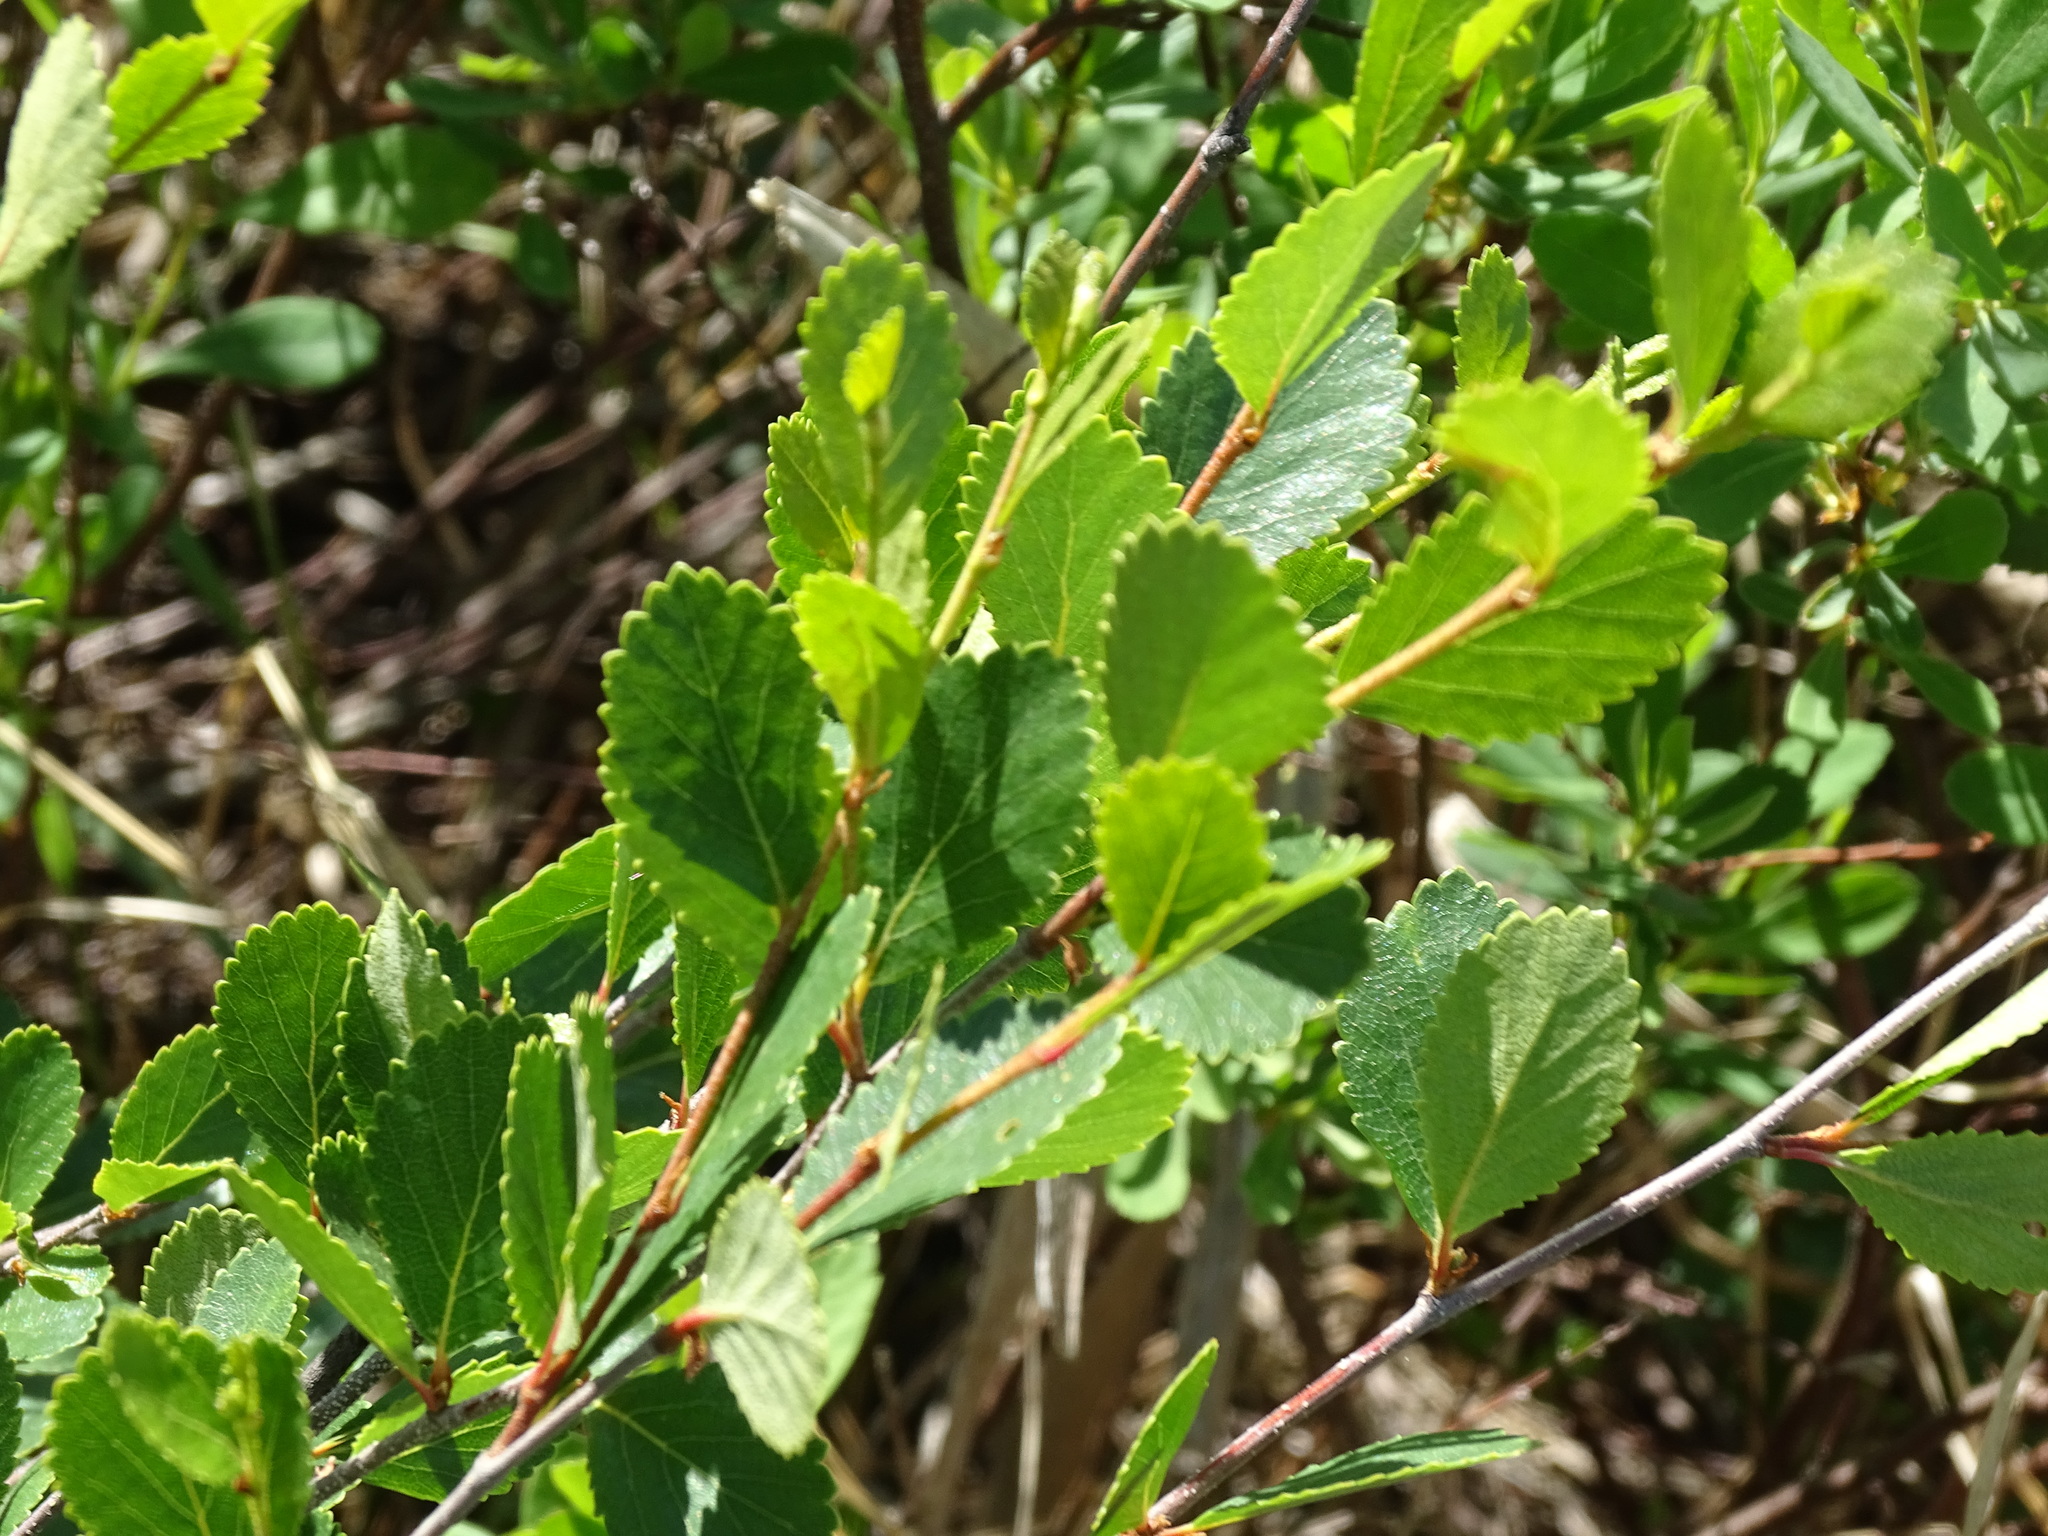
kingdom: Plantae
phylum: Tracheophyta
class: Magnoliopsida
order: Fagales
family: Betulaceae
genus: Betula
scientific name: Betula pumila
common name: Bog birch
